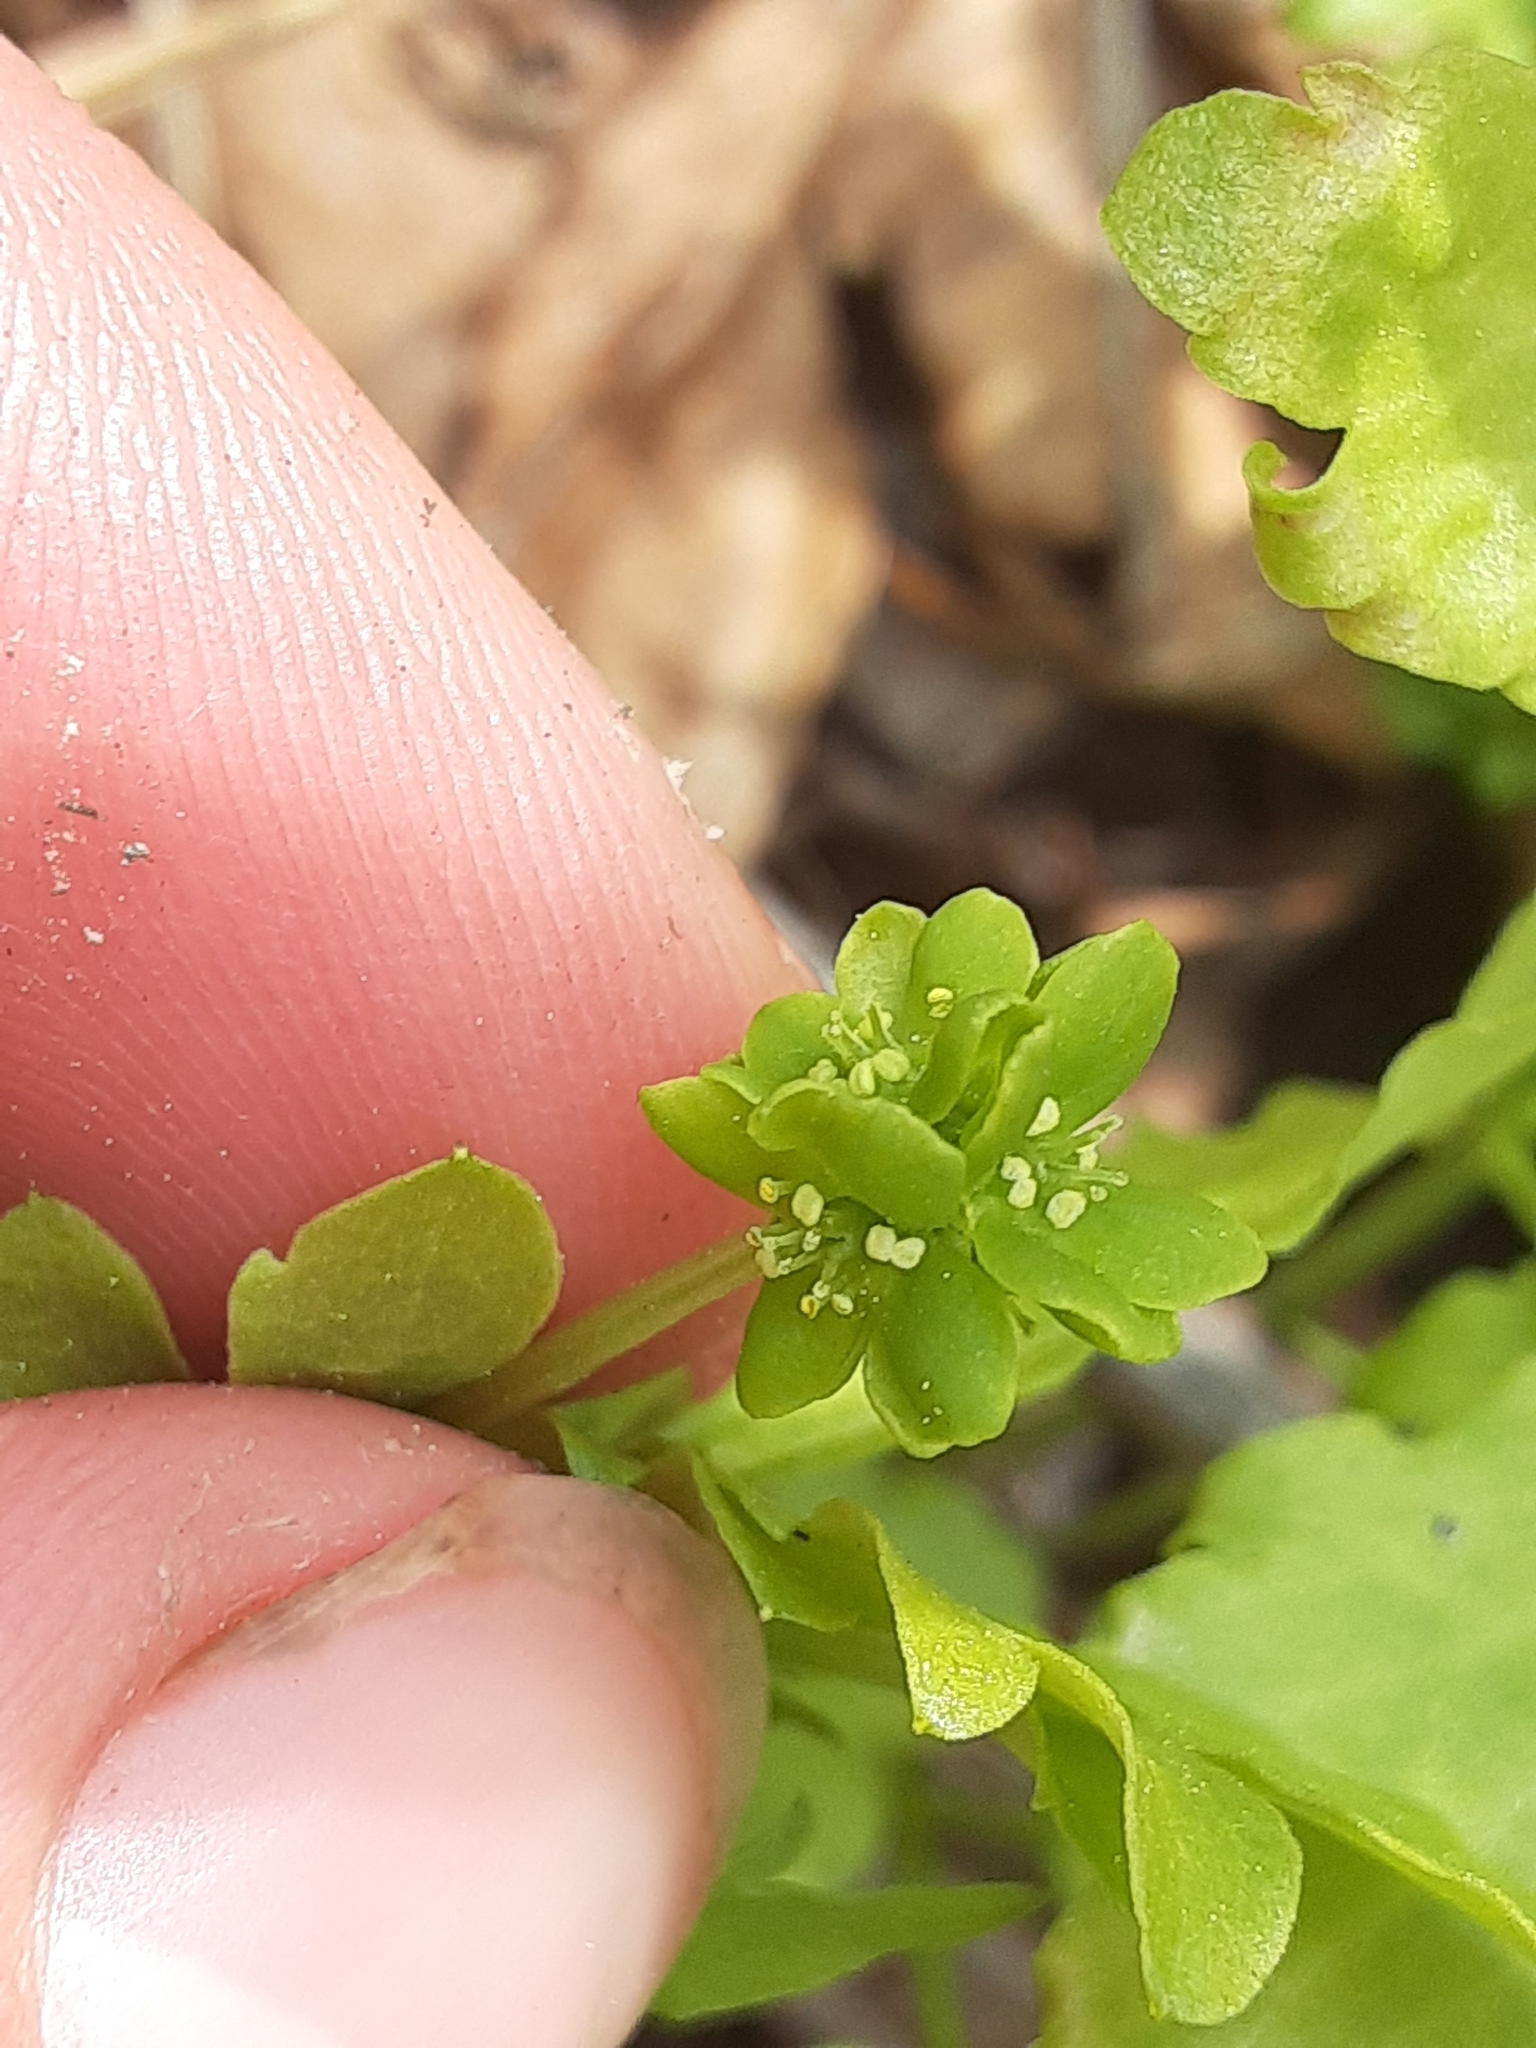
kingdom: Plantae
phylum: Tracheophyta
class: Magnoliopsida
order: Dipsacales
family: Viburnaceae
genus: Adoxa
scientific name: Adoxa moschatellina
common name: Moschatel
